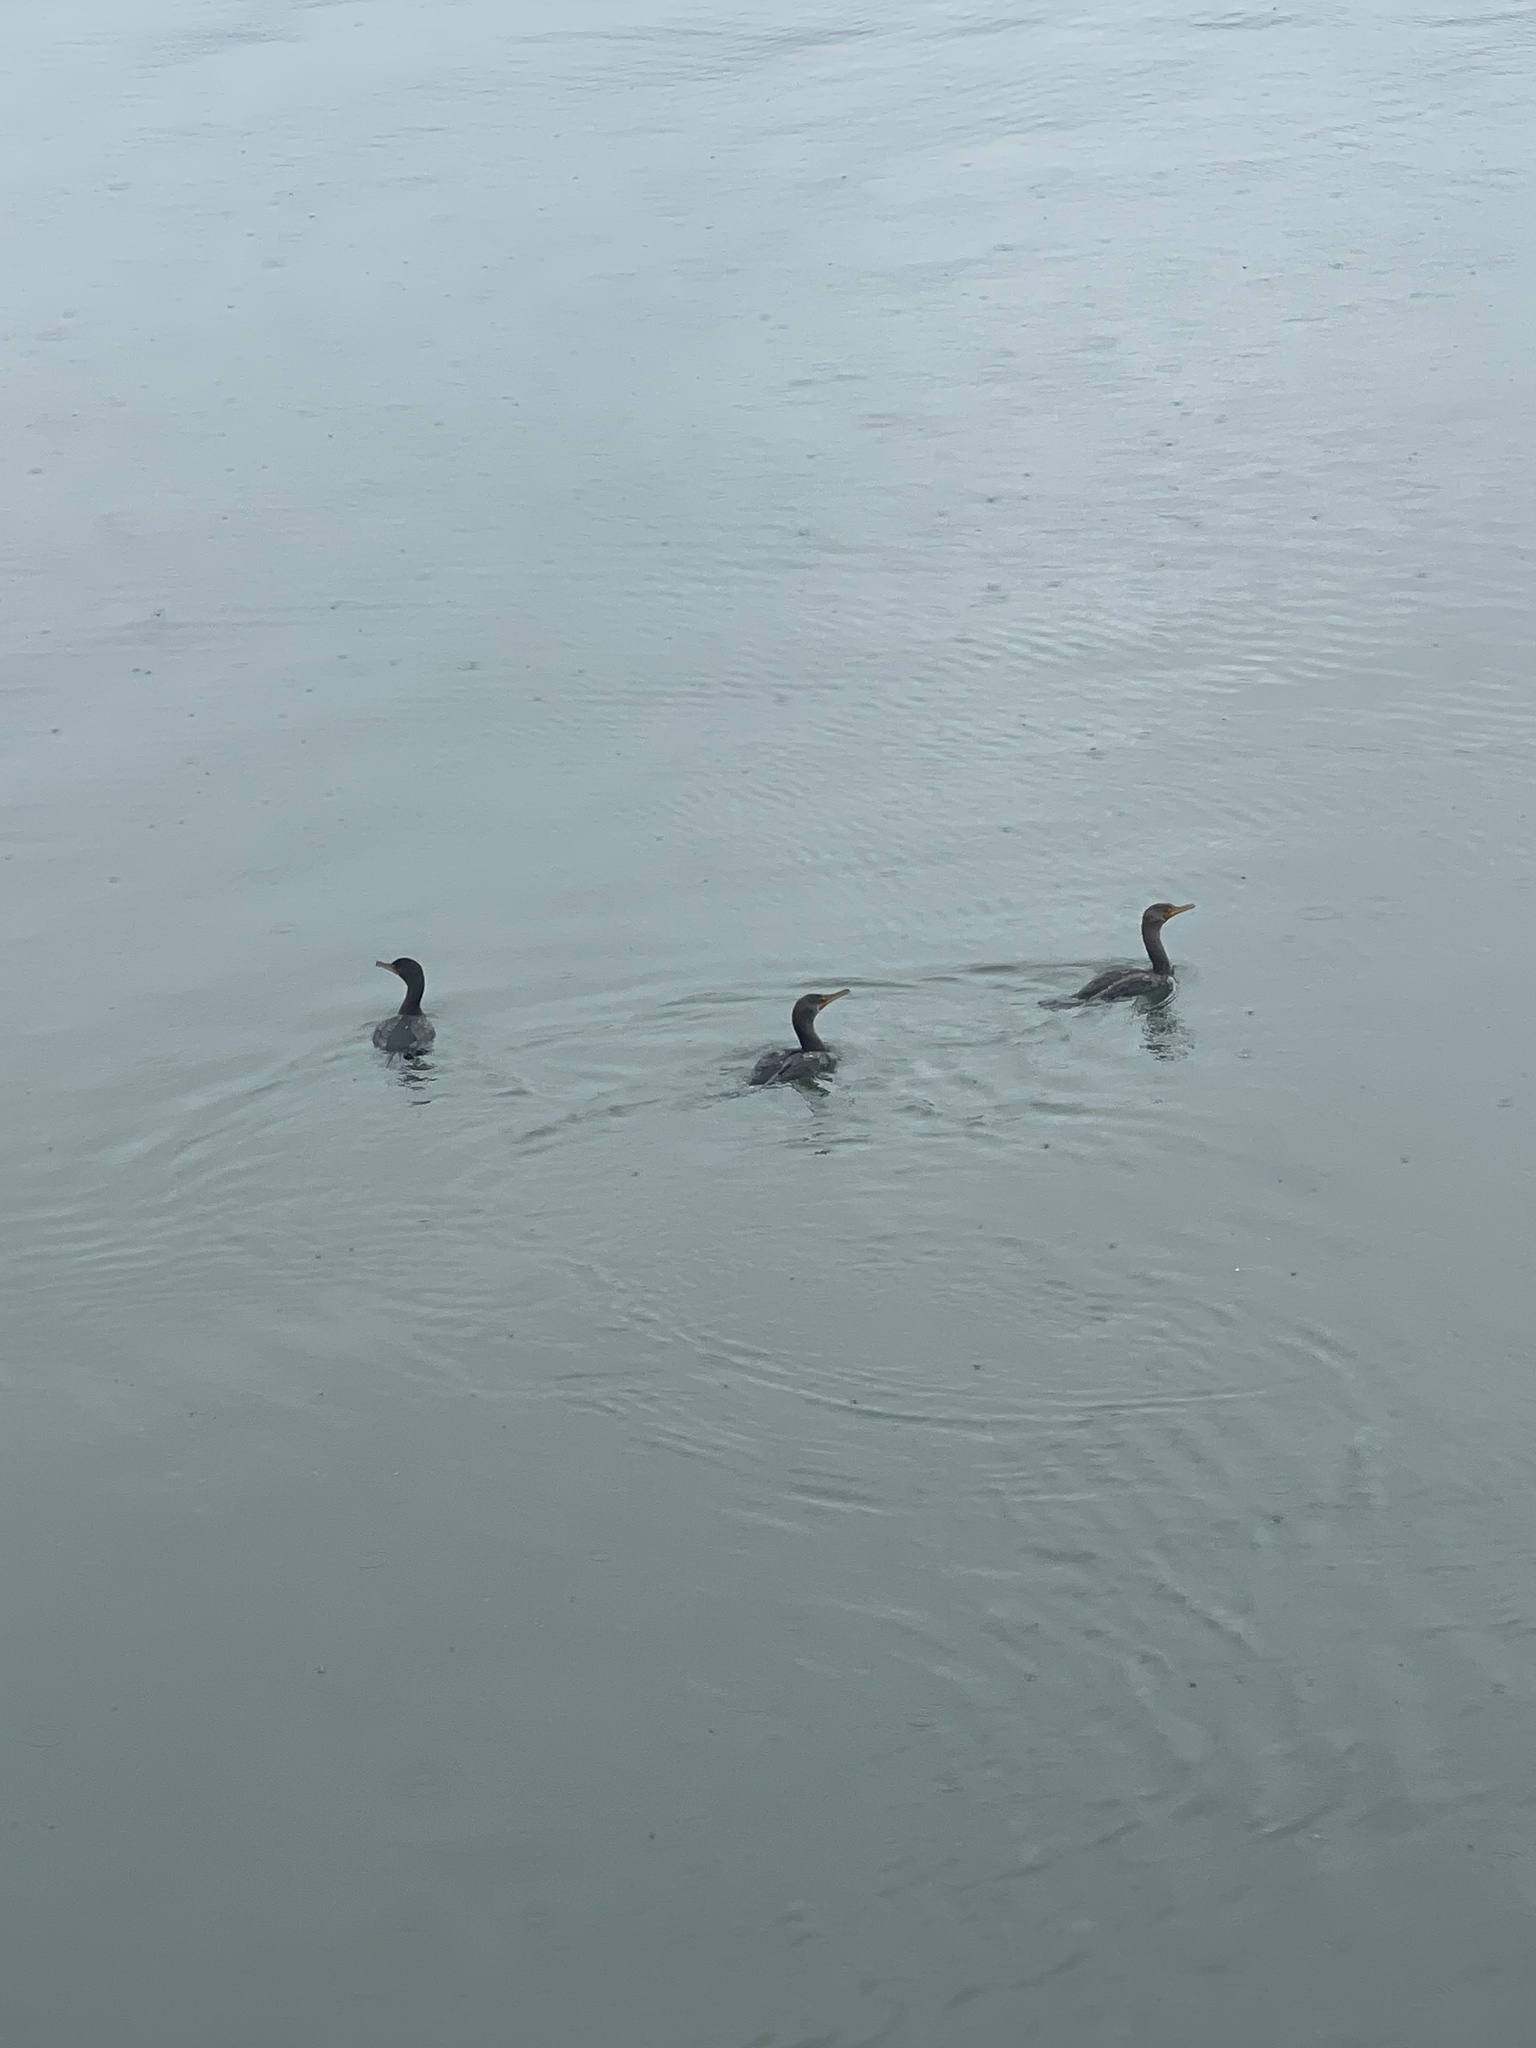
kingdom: Animalia
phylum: Chordata
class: Aves
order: Suliformes
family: Phalacrocoracidae
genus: Phalacrocorax
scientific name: Phalacrocorax auritus
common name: Double-crested cormorant
